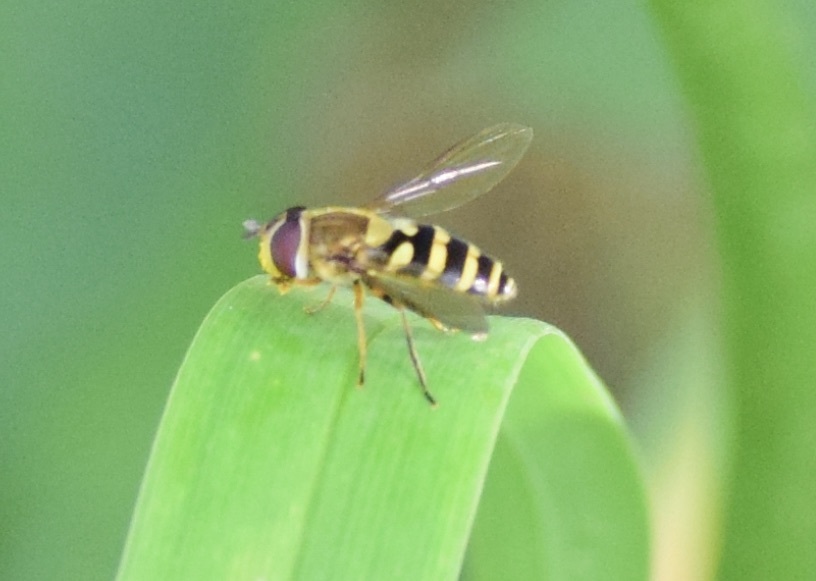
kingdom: Animalia
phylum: Arthropoda
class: Insecta
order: Diptera
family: Syrphidae
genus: Syrphus
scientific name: Syrphus rectus
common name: Yellow-legged flower fly
